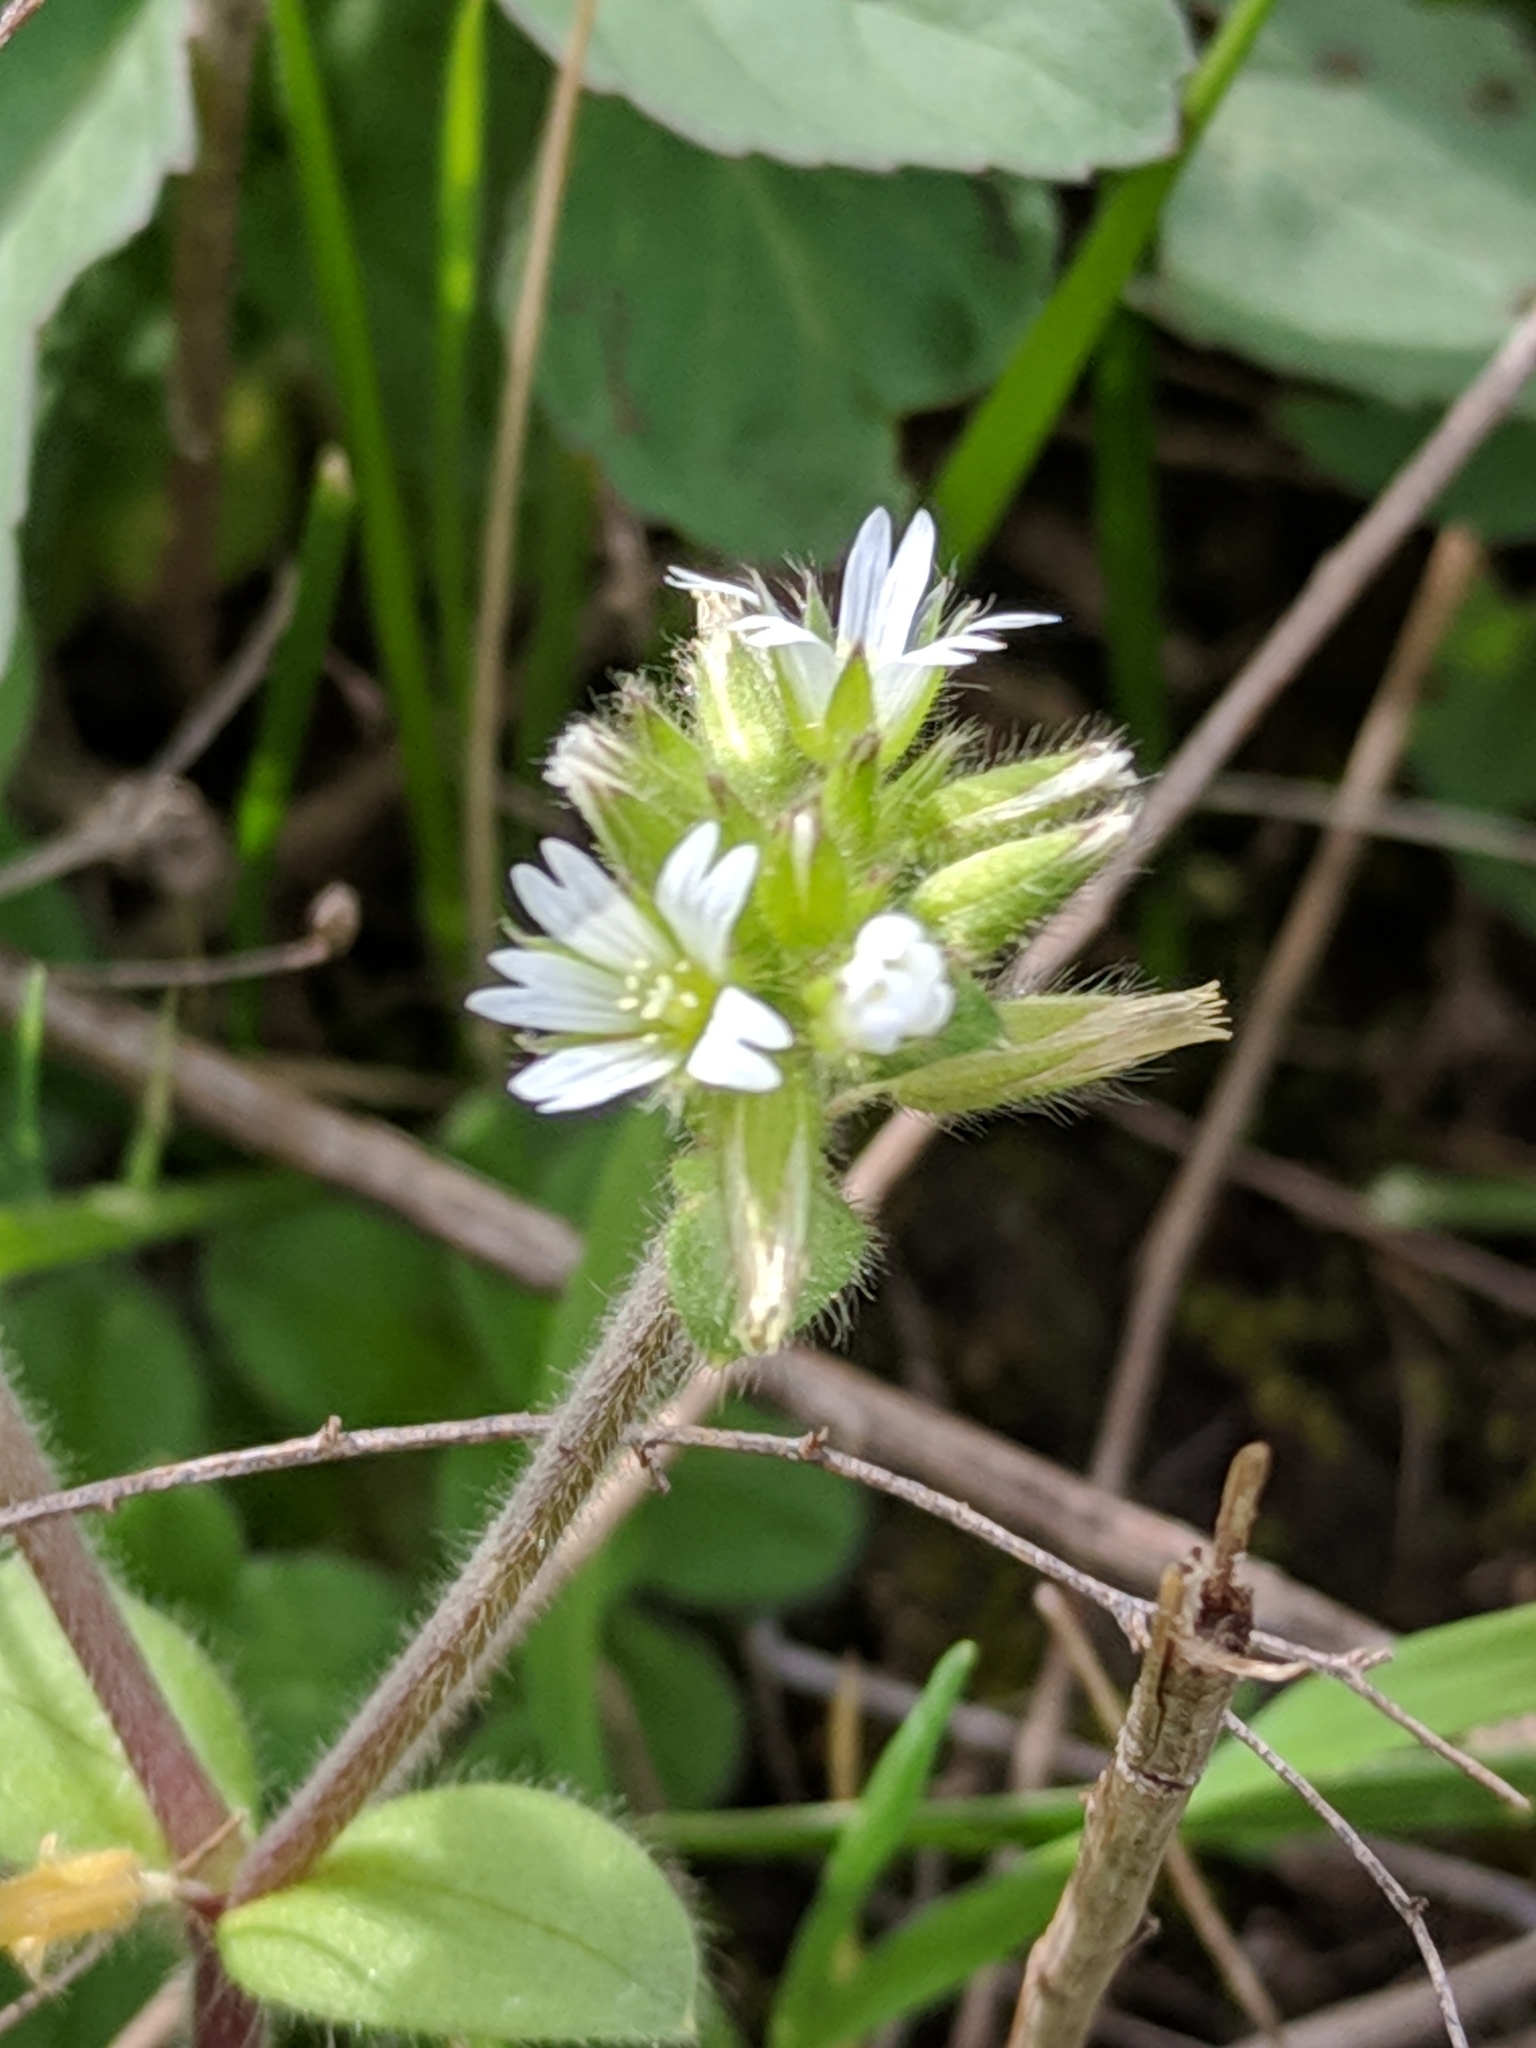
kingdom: Plantae
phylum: Tracheophyta
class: Magnoliopsida
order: Caryophyllales
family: Caryophyllaceae
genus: Cerastium
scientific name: Cerastium glomeratum
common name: Sticky chickweed
